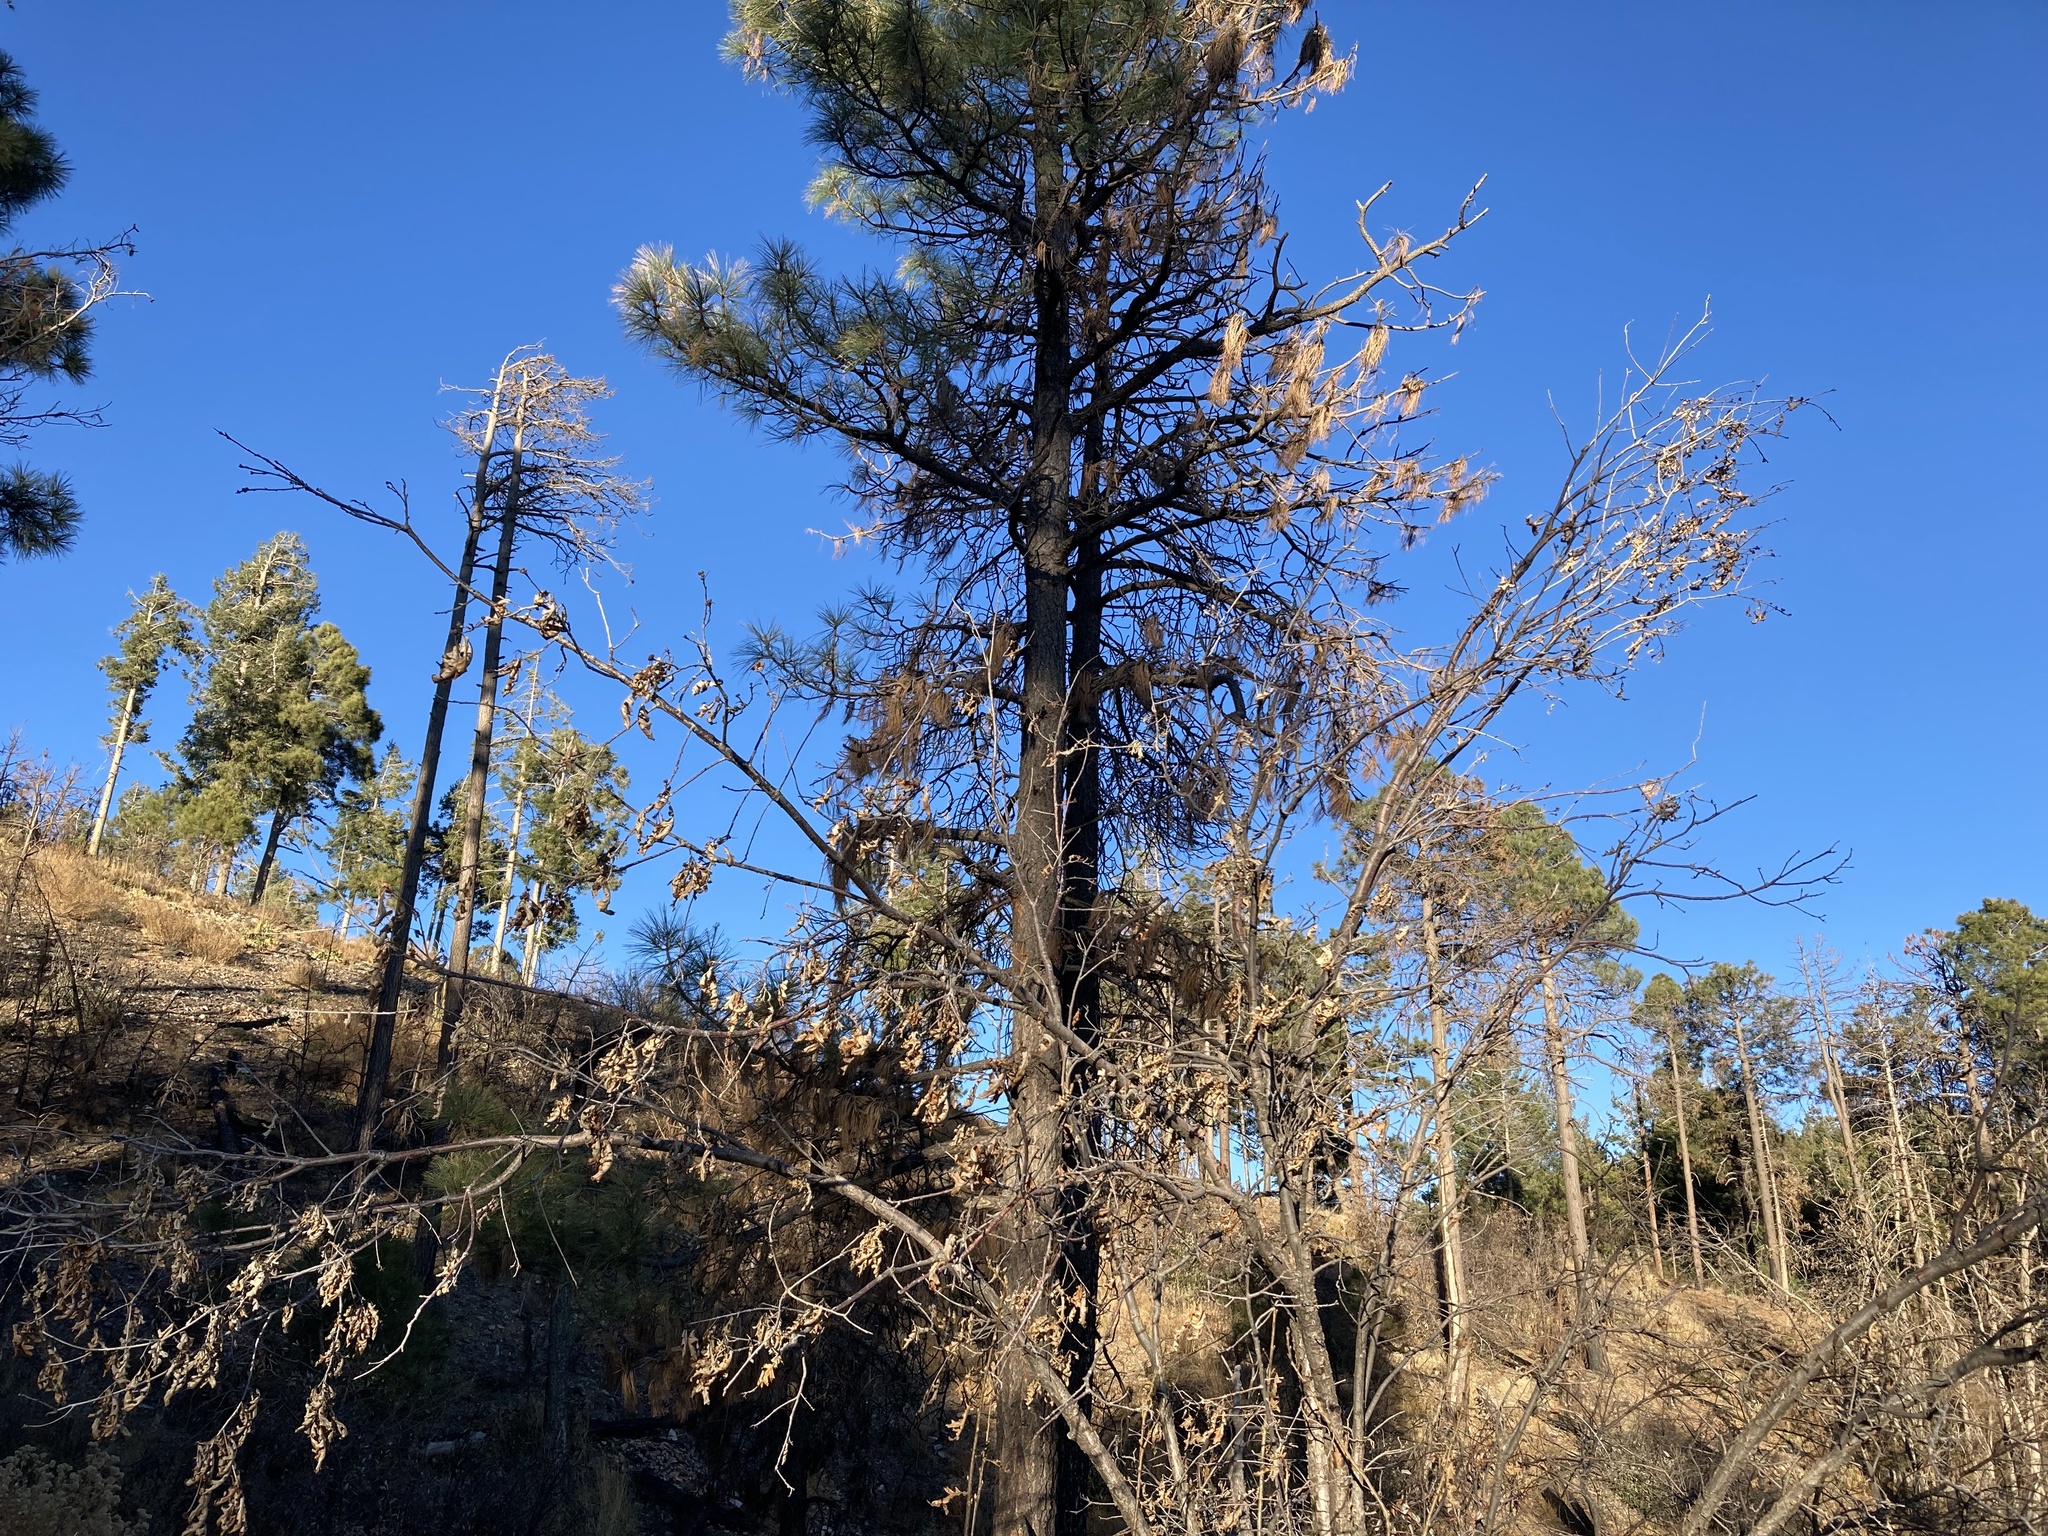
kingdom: Plantae
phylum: Tracheophyta
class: Magnoliopsida
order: Fagales
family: Fagaceae
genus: Quercus
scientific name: Quercus gambelii
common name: Gambel oak
